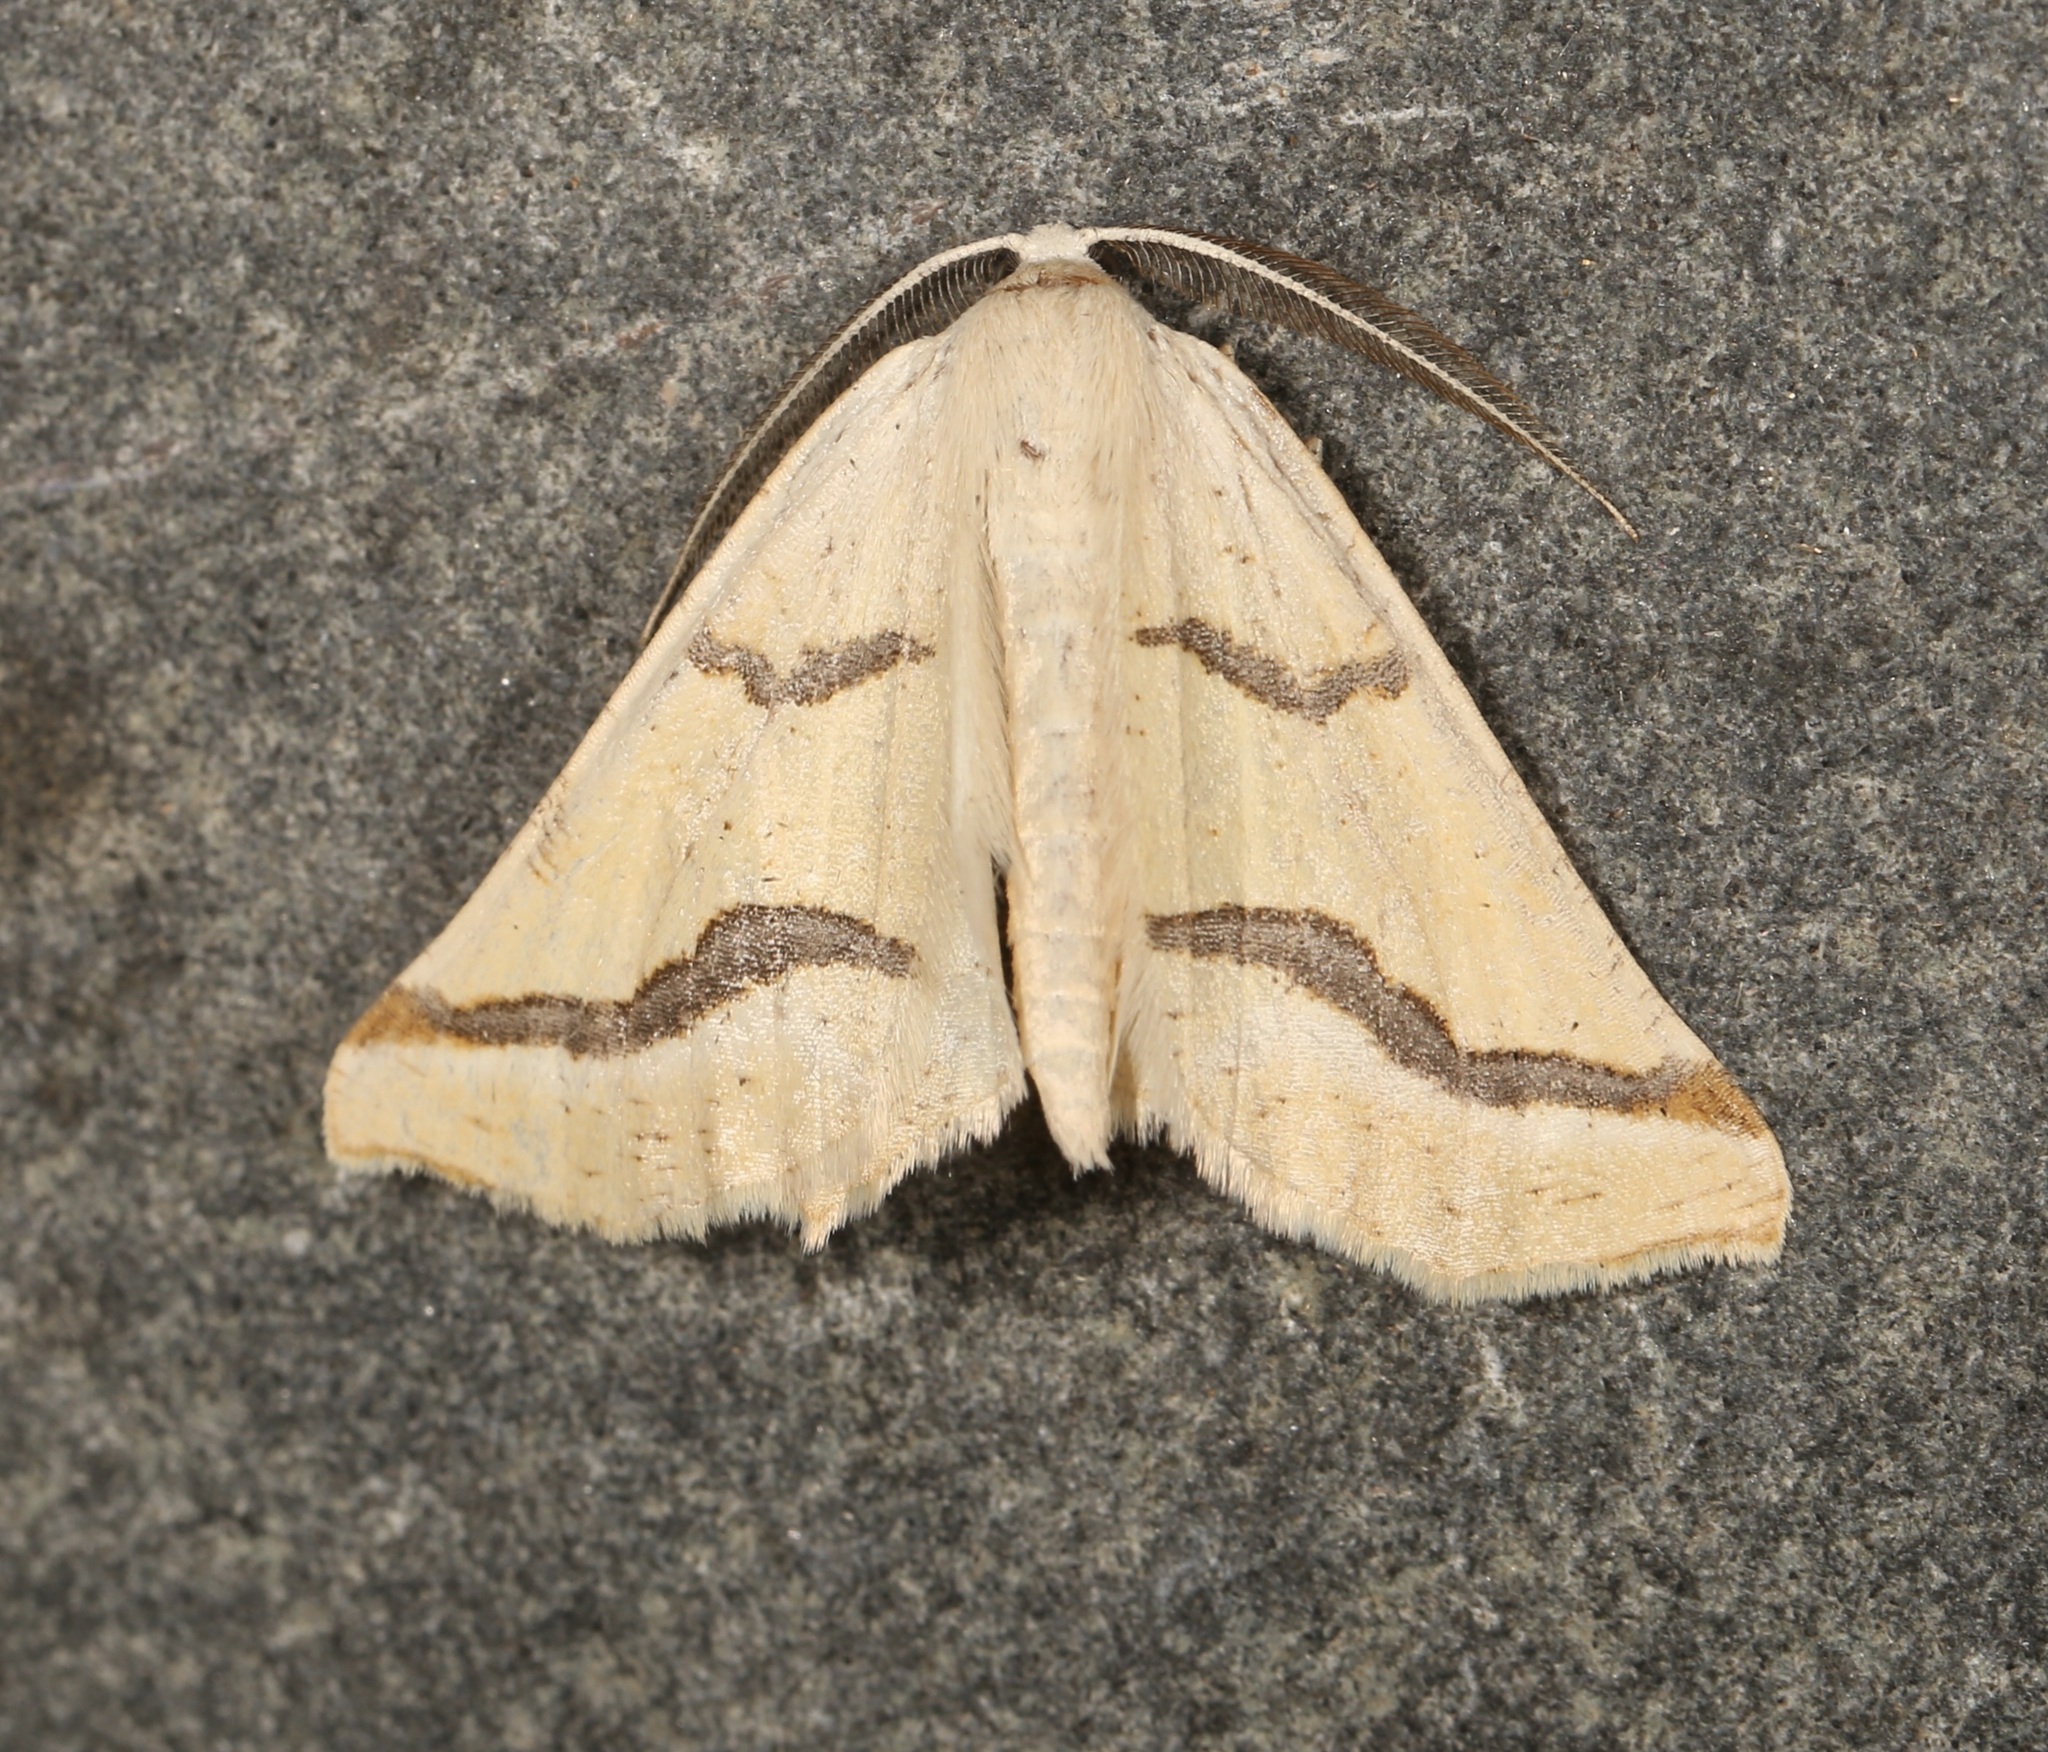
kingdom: Animalia
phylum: Arthropoda
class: Insecta
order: Lepidoptera
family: Geometridae
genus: Eriplatymetra
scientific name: Eriplatymetra coloradaria
